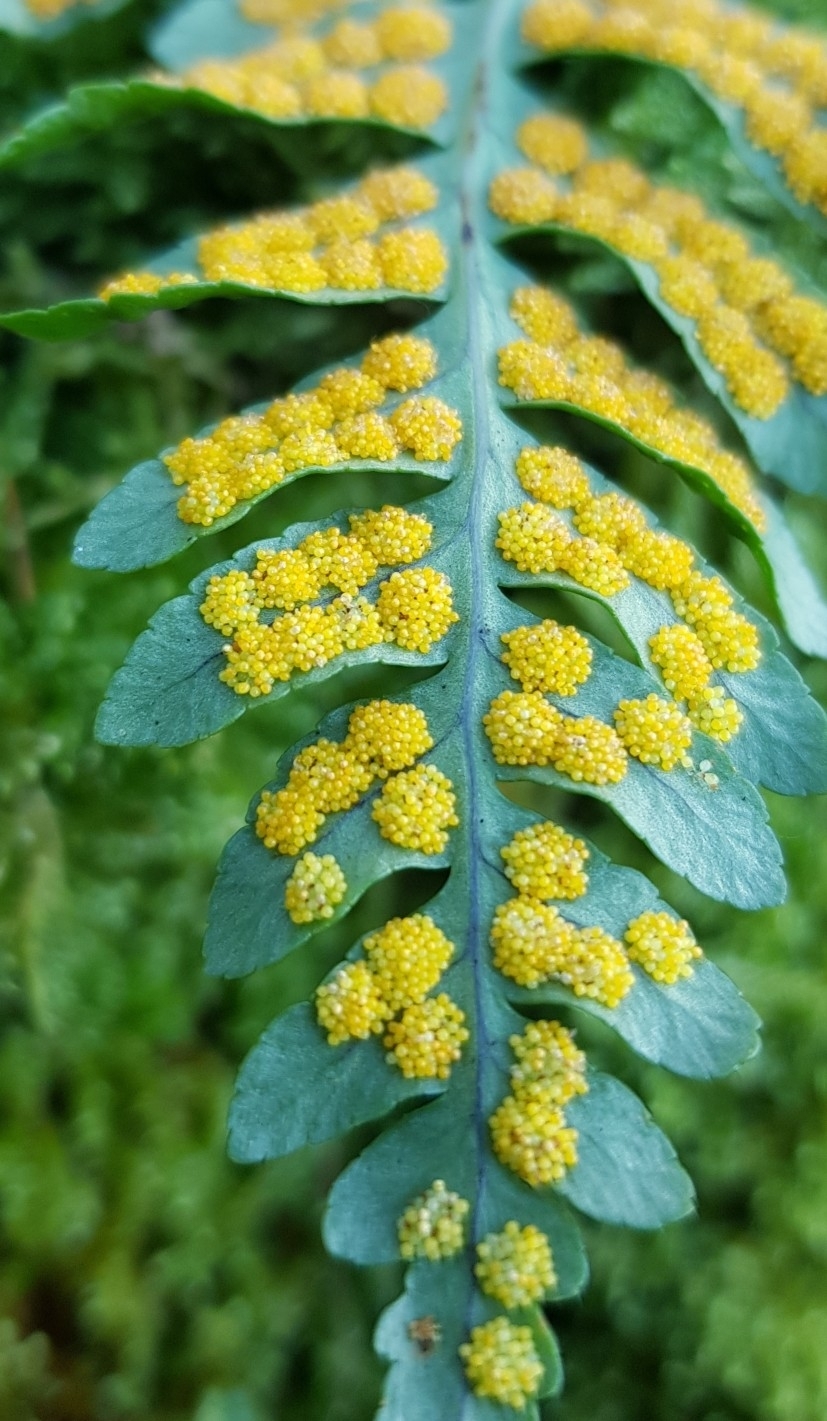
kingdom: Plantae
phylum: Tracheophyta
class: Polypodiopsida
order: Polypodiales
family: Polypodiaceae
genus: Polypodium
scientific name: Polypodium vulgare
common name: Common polypody
